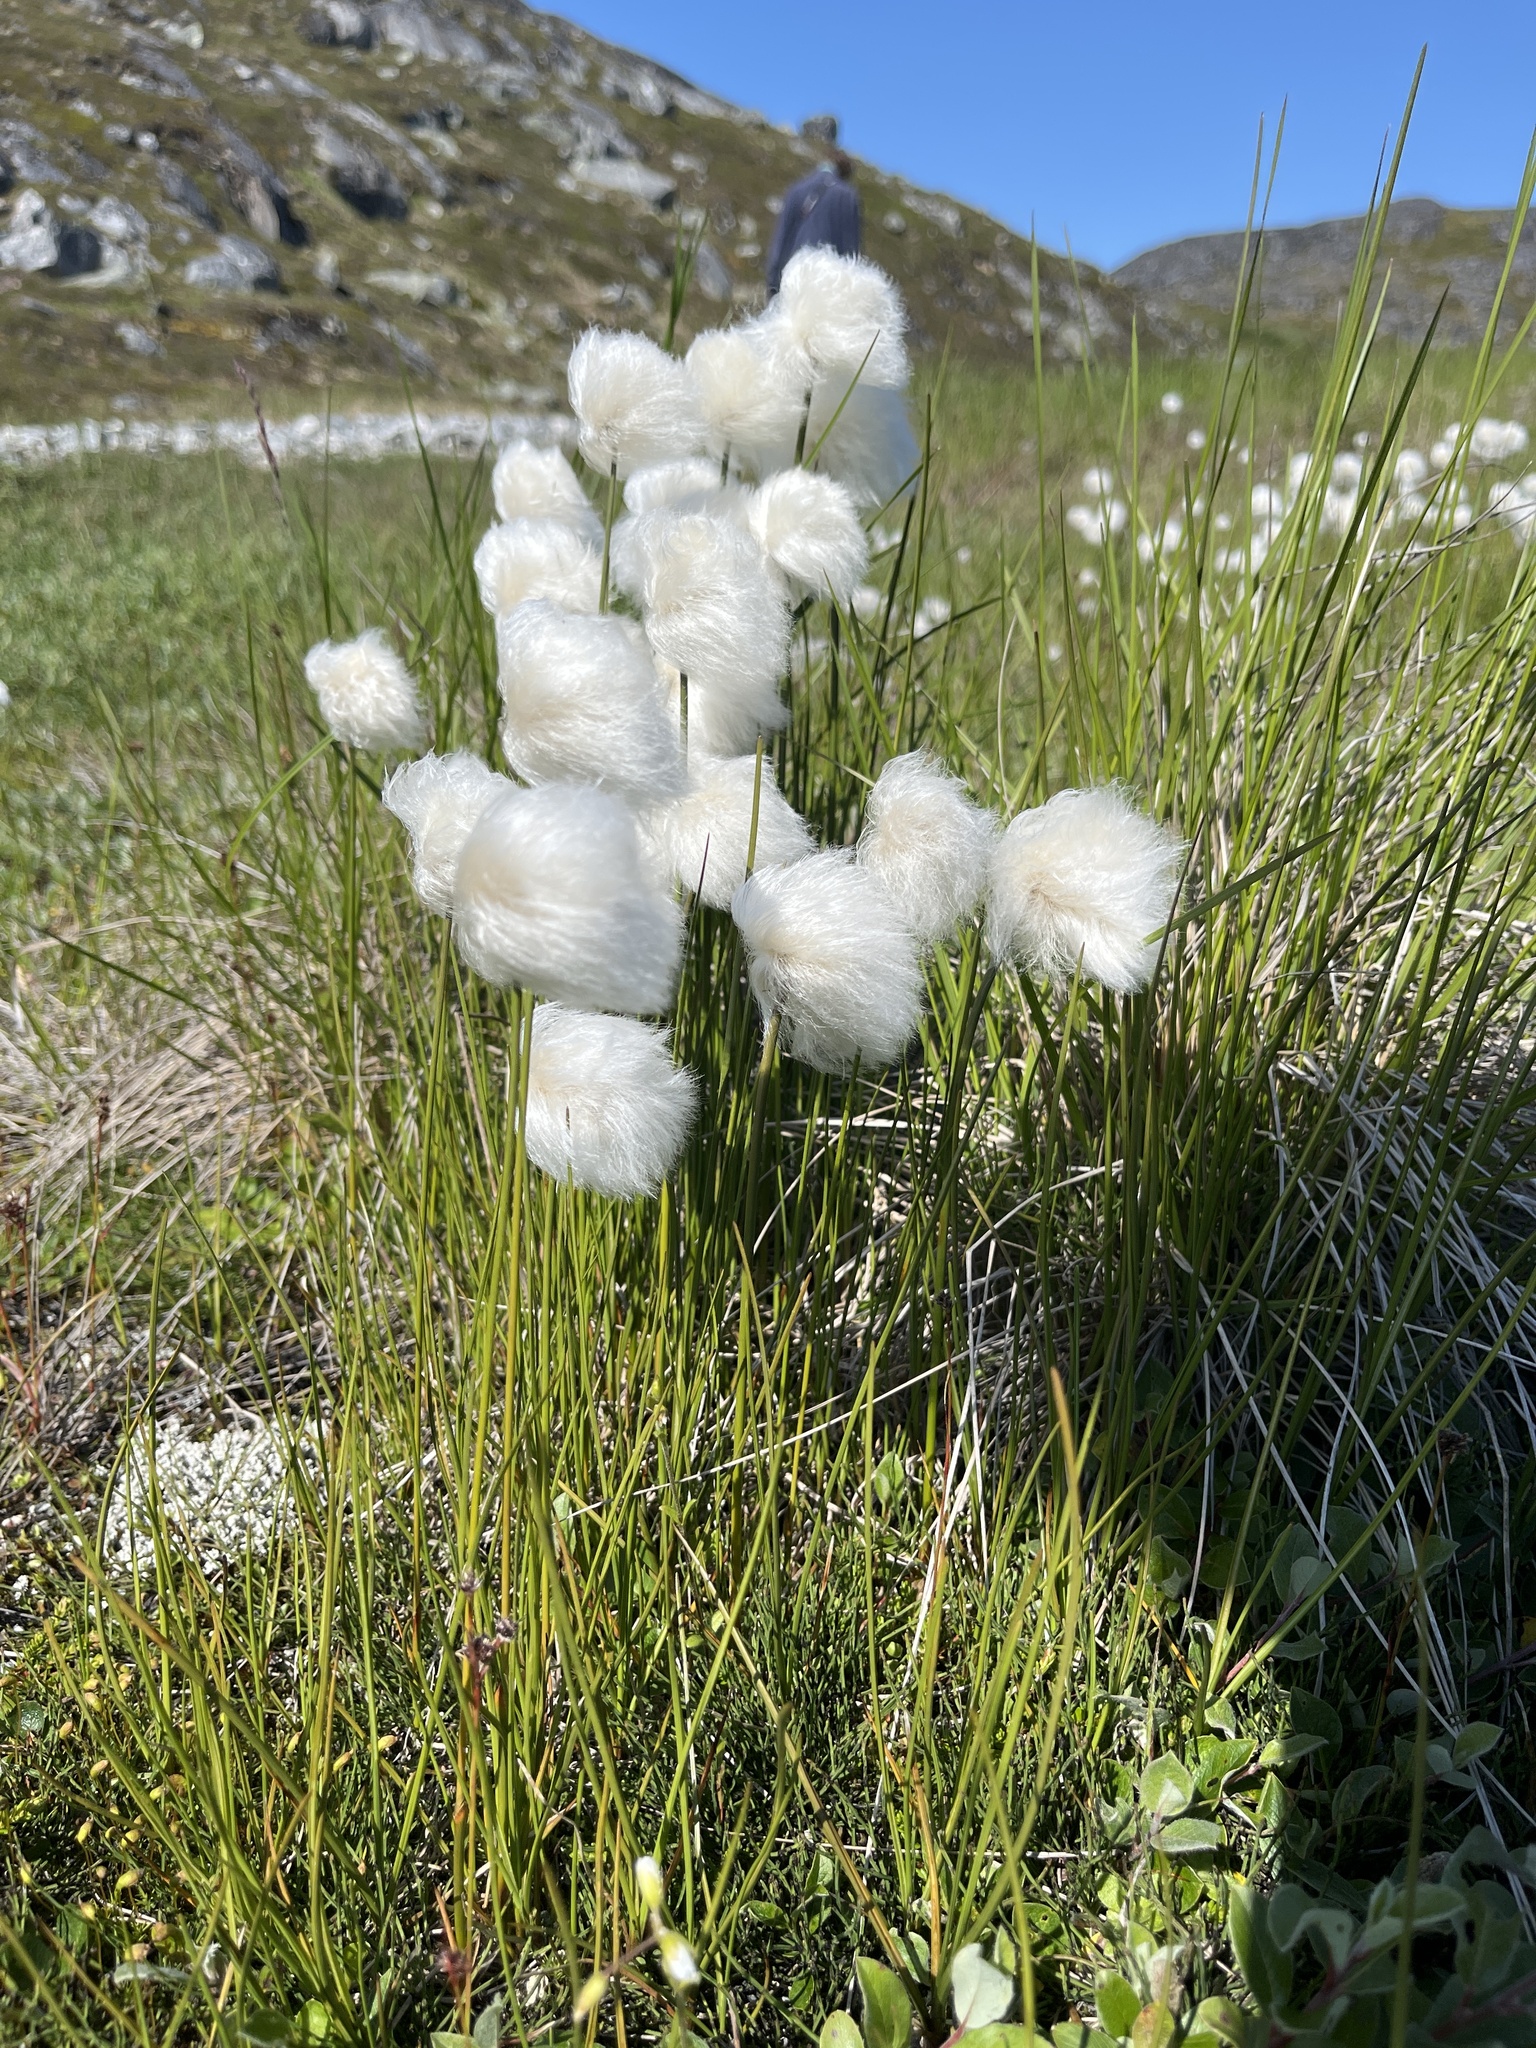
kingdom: Plantae
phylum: Tracheophyta
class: Liliopsida
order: Poales
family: Cyperaceae
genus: Eriophorum
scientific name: Eriophorum scheuchzeri
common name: Scheuchzer's cottongrass
